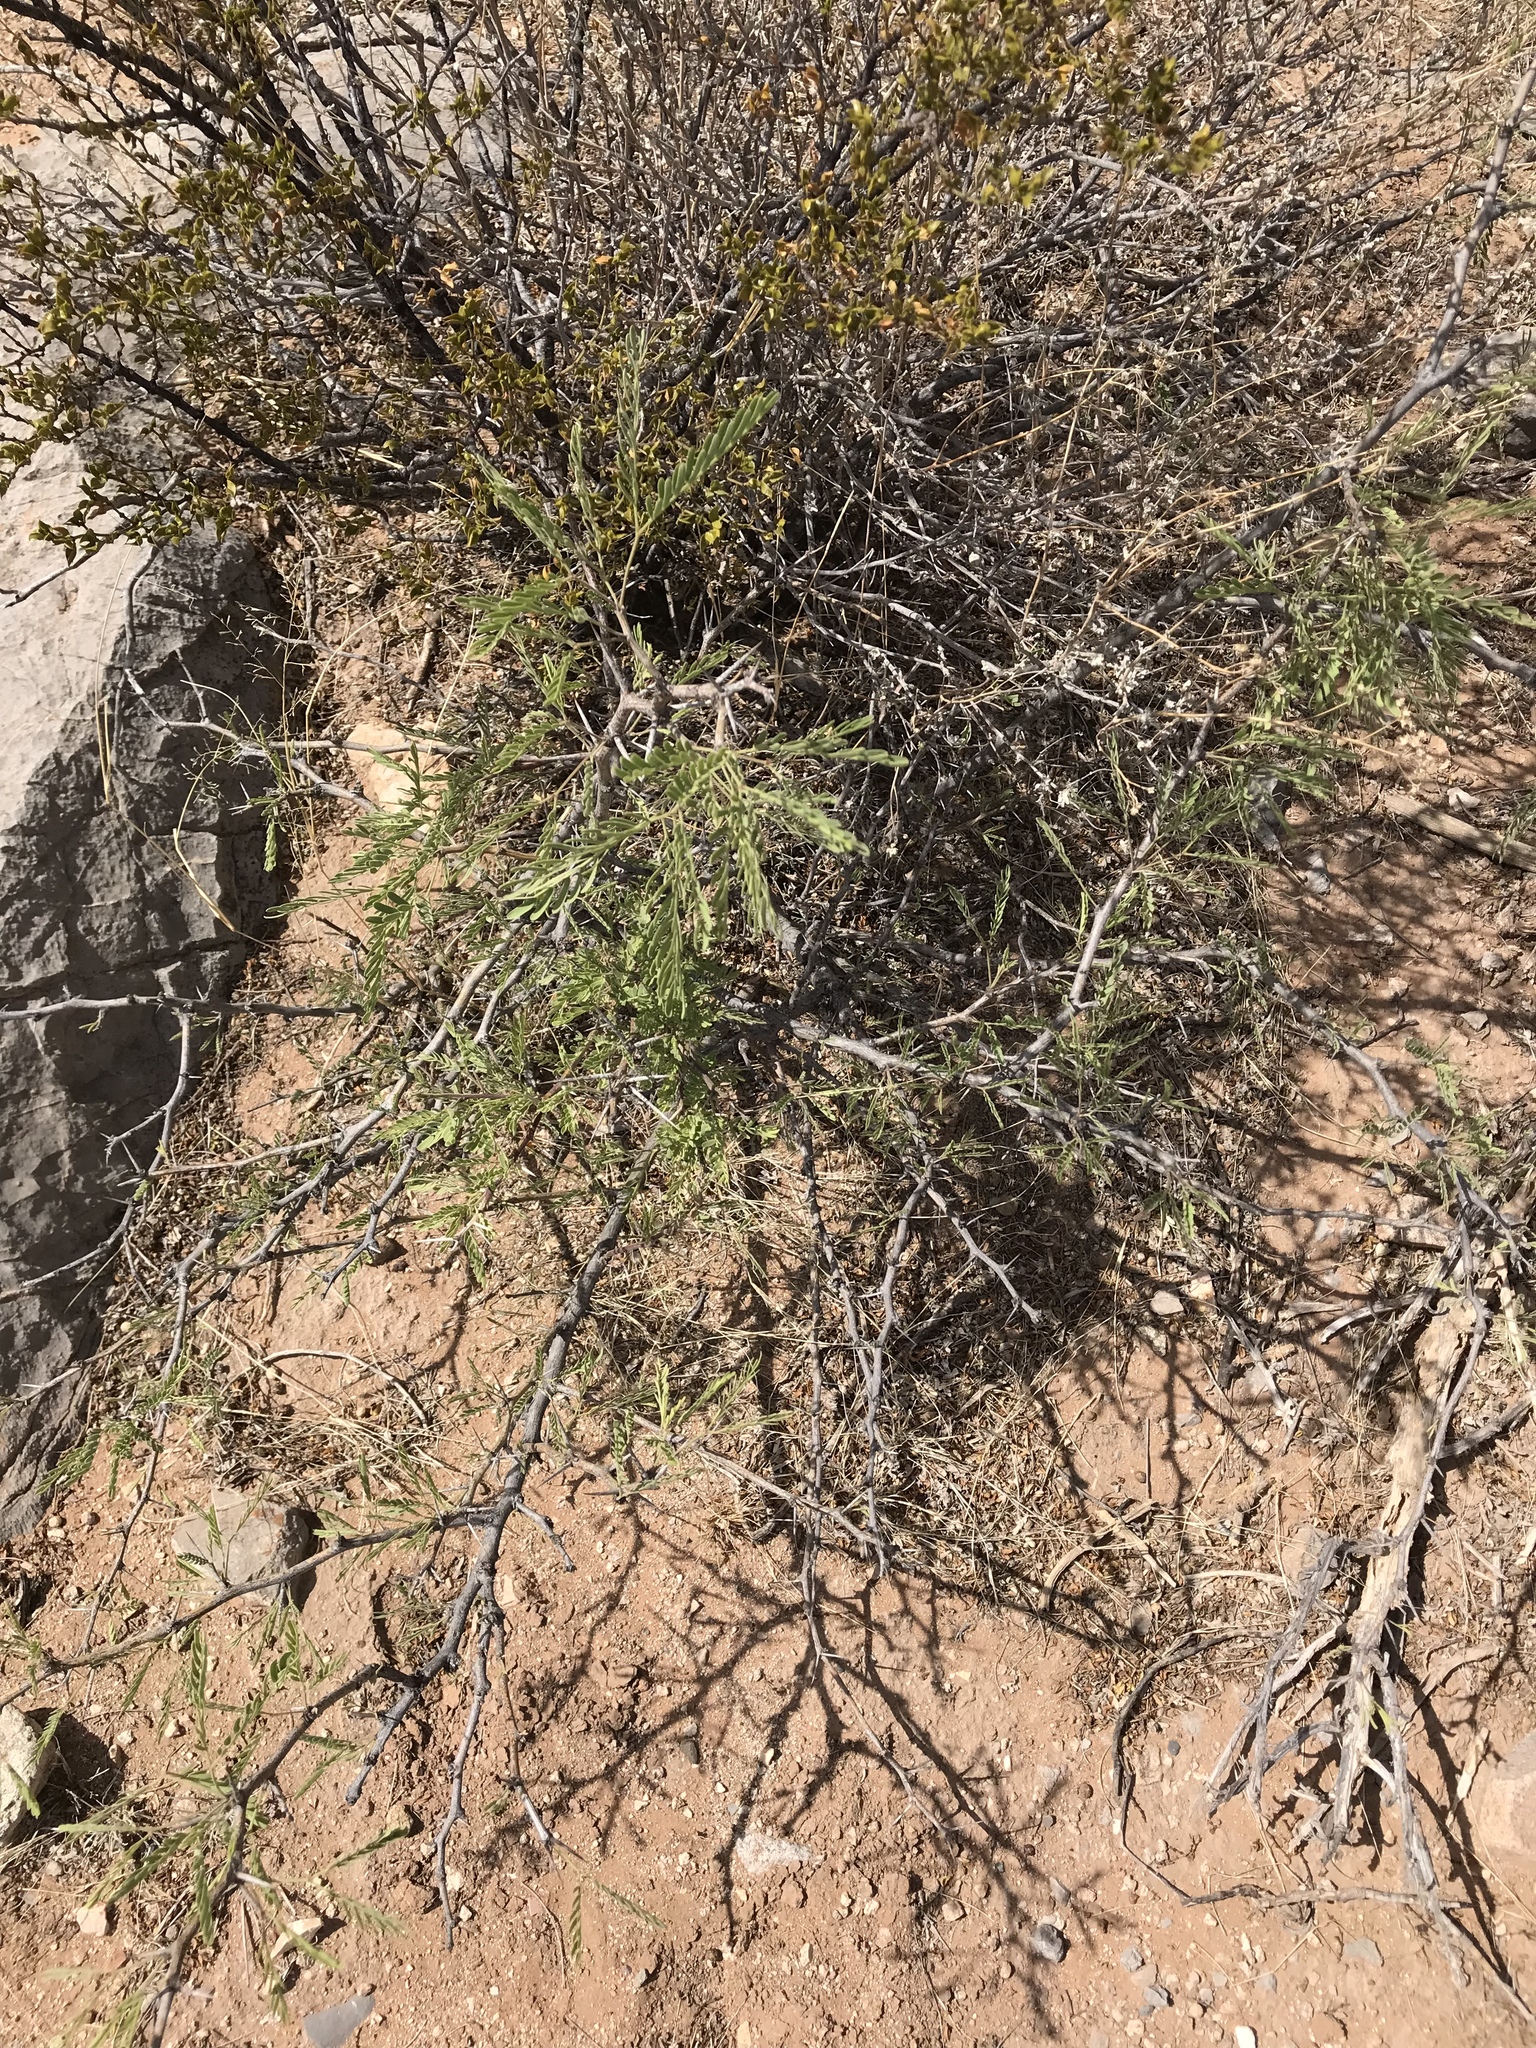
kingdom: Plantae
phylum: Tracheophyta
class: Magnoliopsida
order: Fabales
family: Fabaceae
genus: Prosopis
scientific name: Prosopis glandulosa
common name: Honey mesquite
